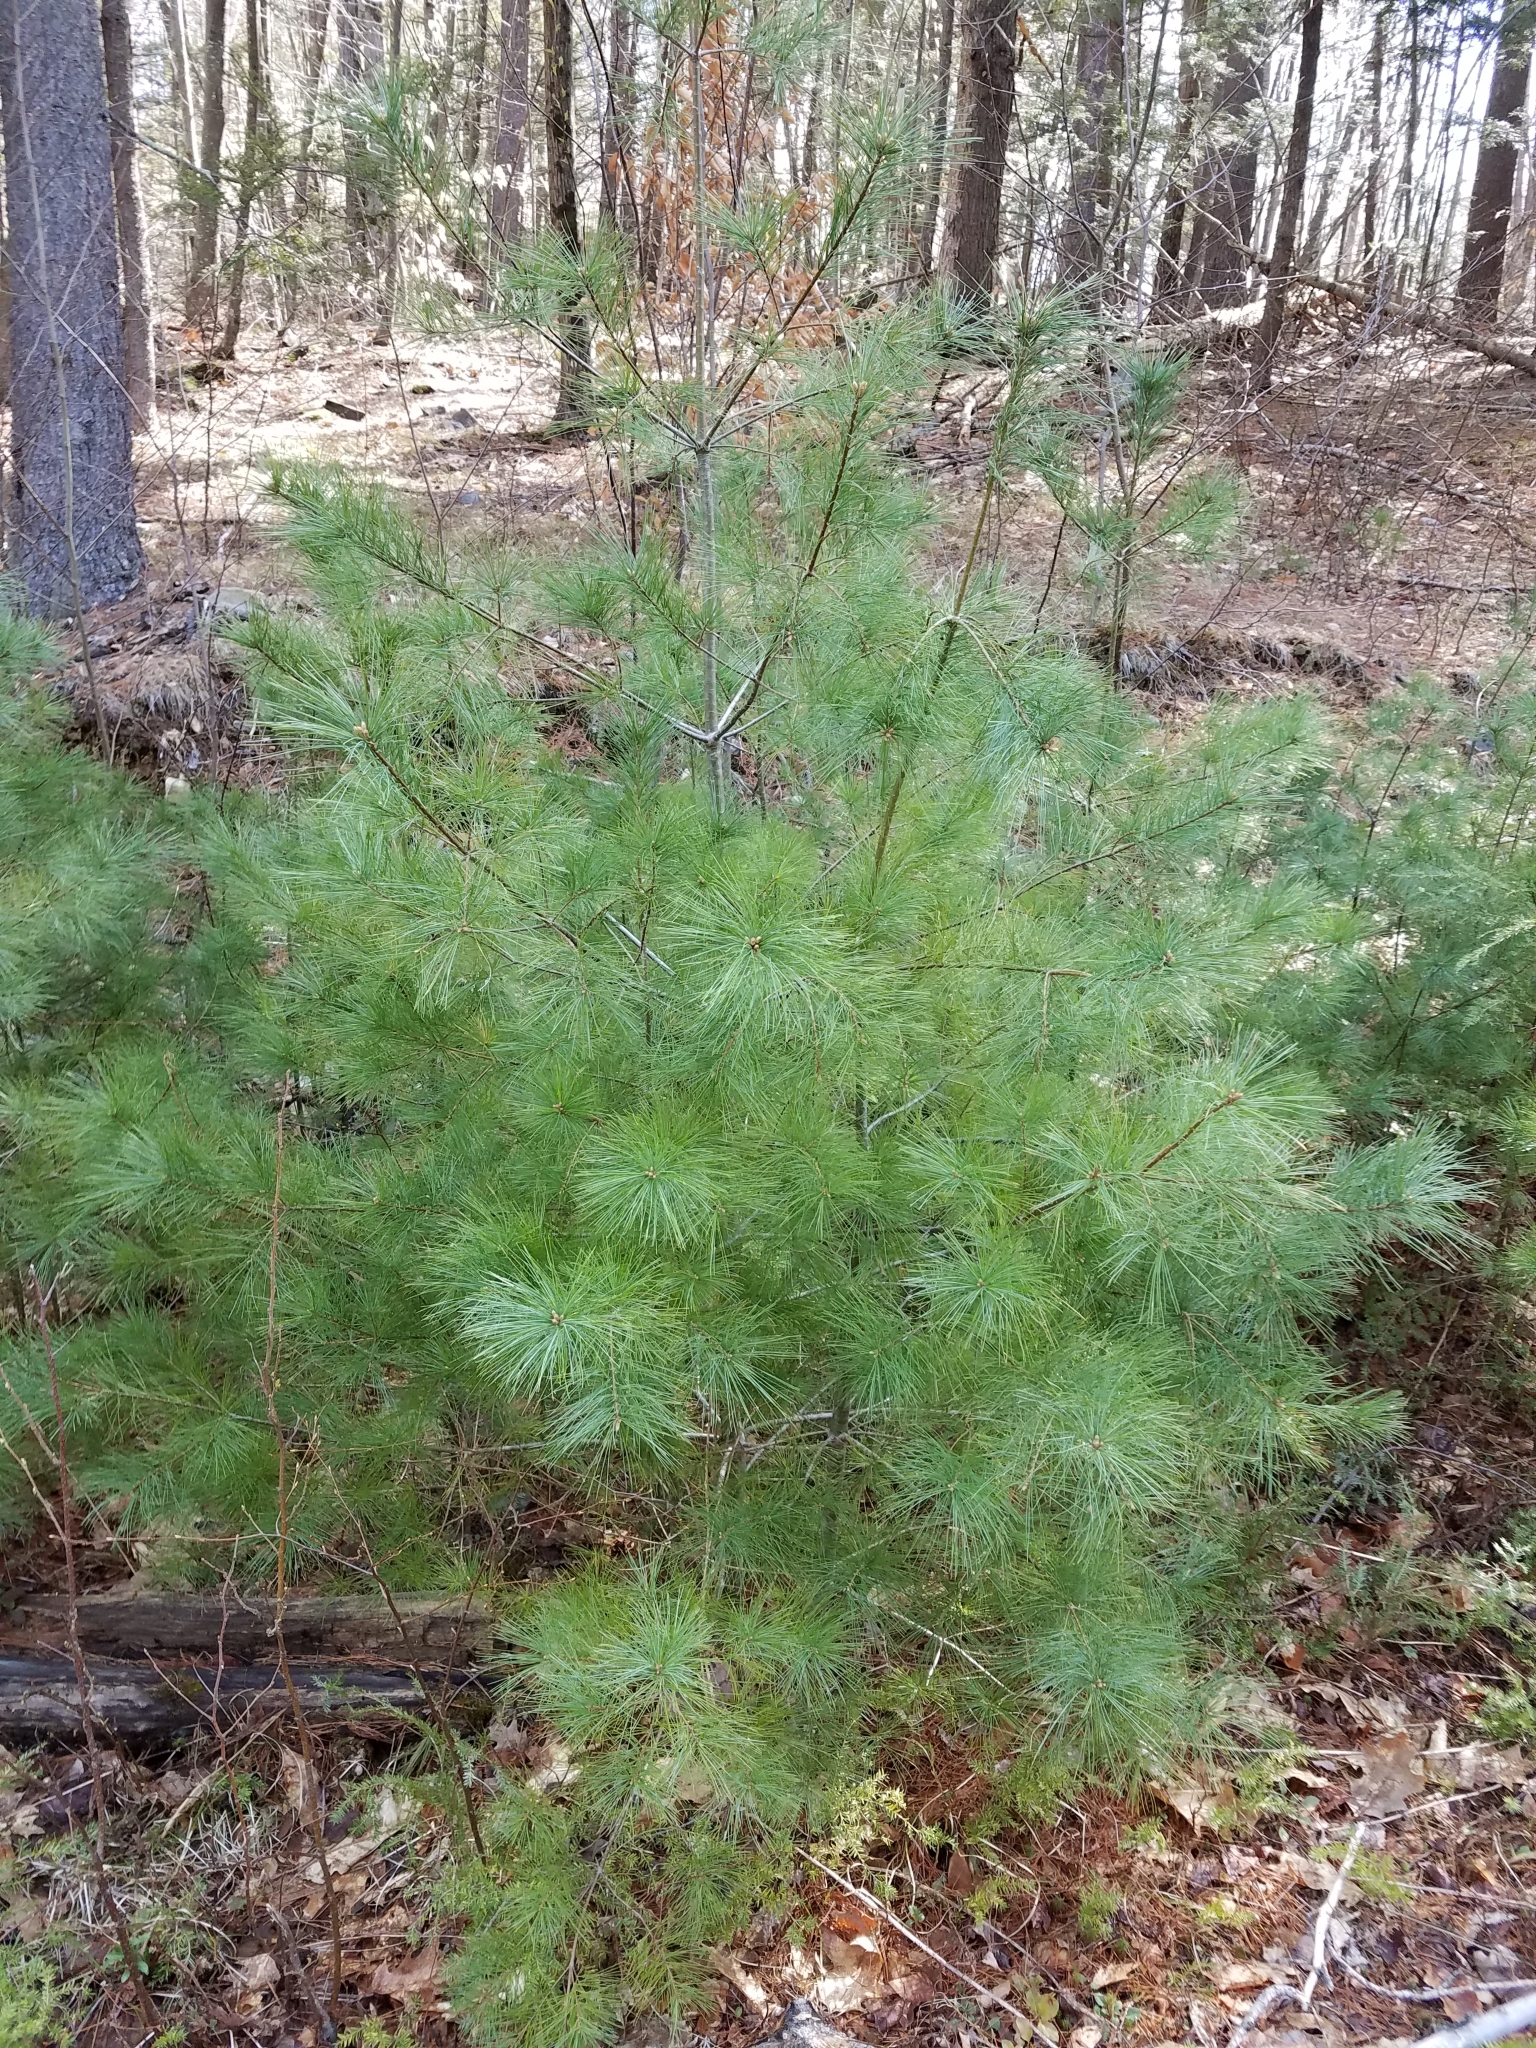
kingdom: Plantae
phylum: Tracheophyta
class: Pinopsida
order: Pinales
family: Pinaceae
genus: Pinus
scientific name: Pinus strobus
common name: Weymouth pine
